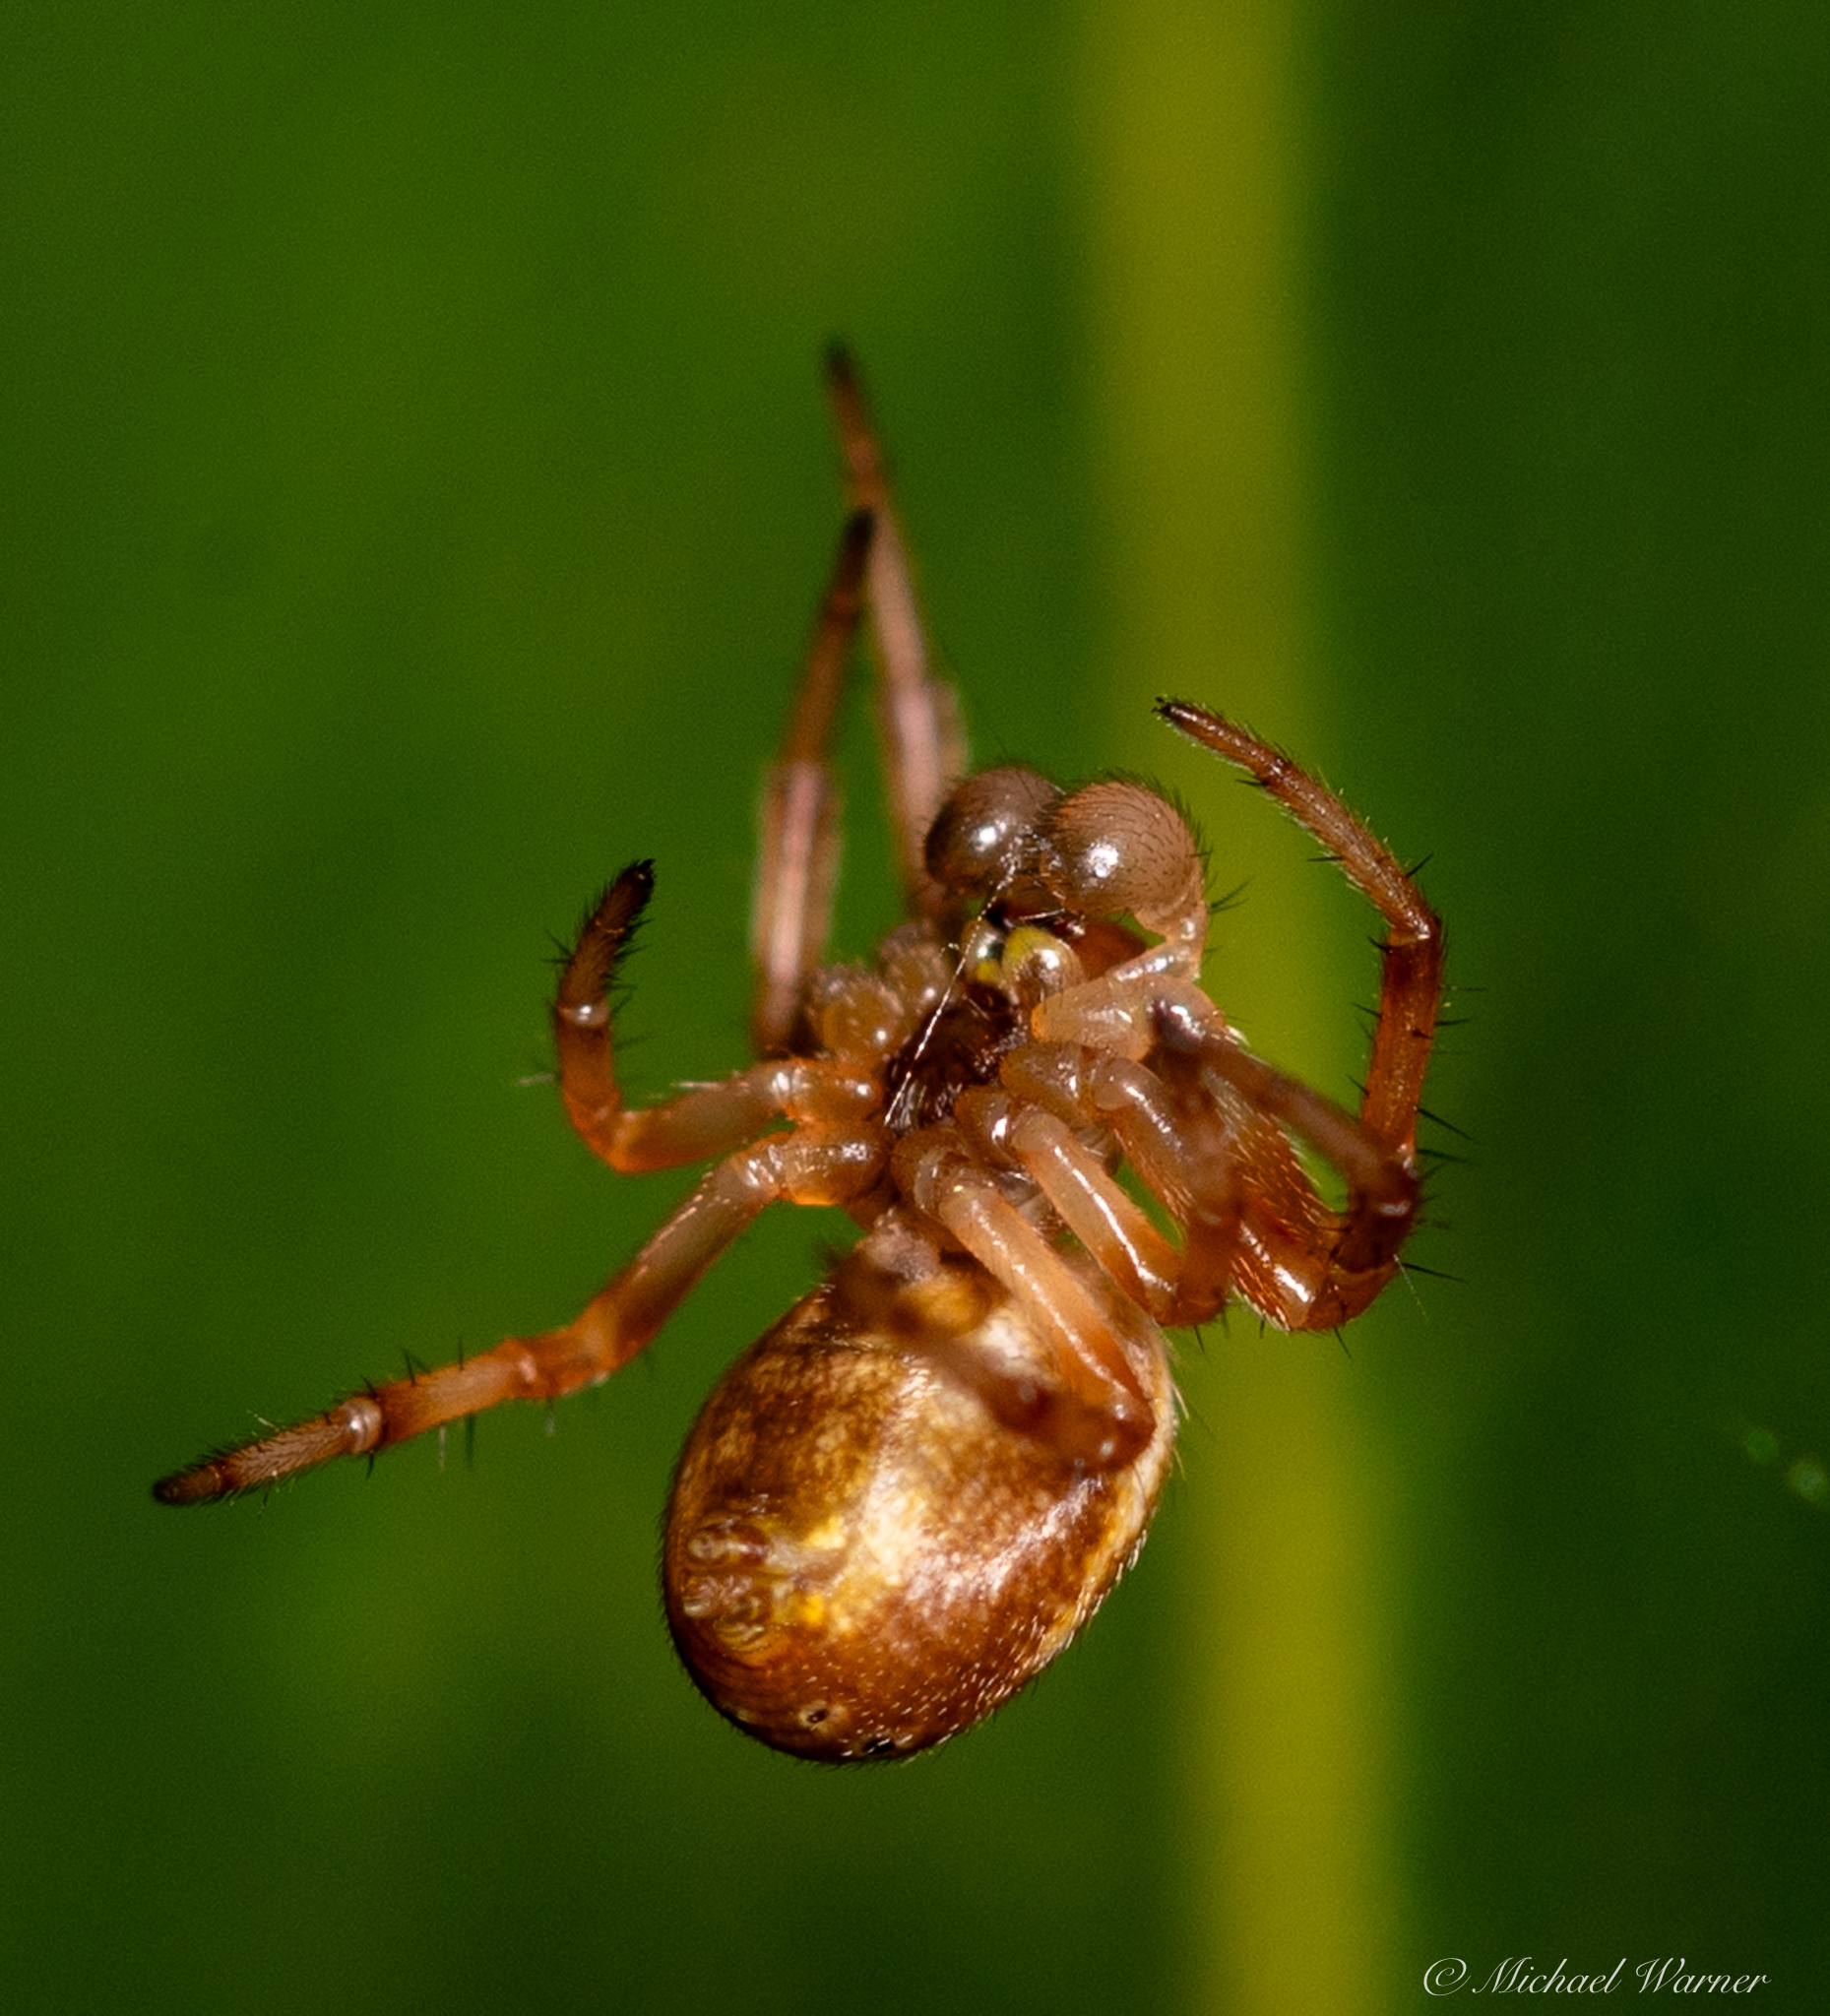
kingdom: Animalia
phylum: Arthropoda
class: Arachnida
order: Araneae
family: Araneidae
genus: Araniella
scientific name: Araniella displicata
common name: Sixspotted orb weaver
